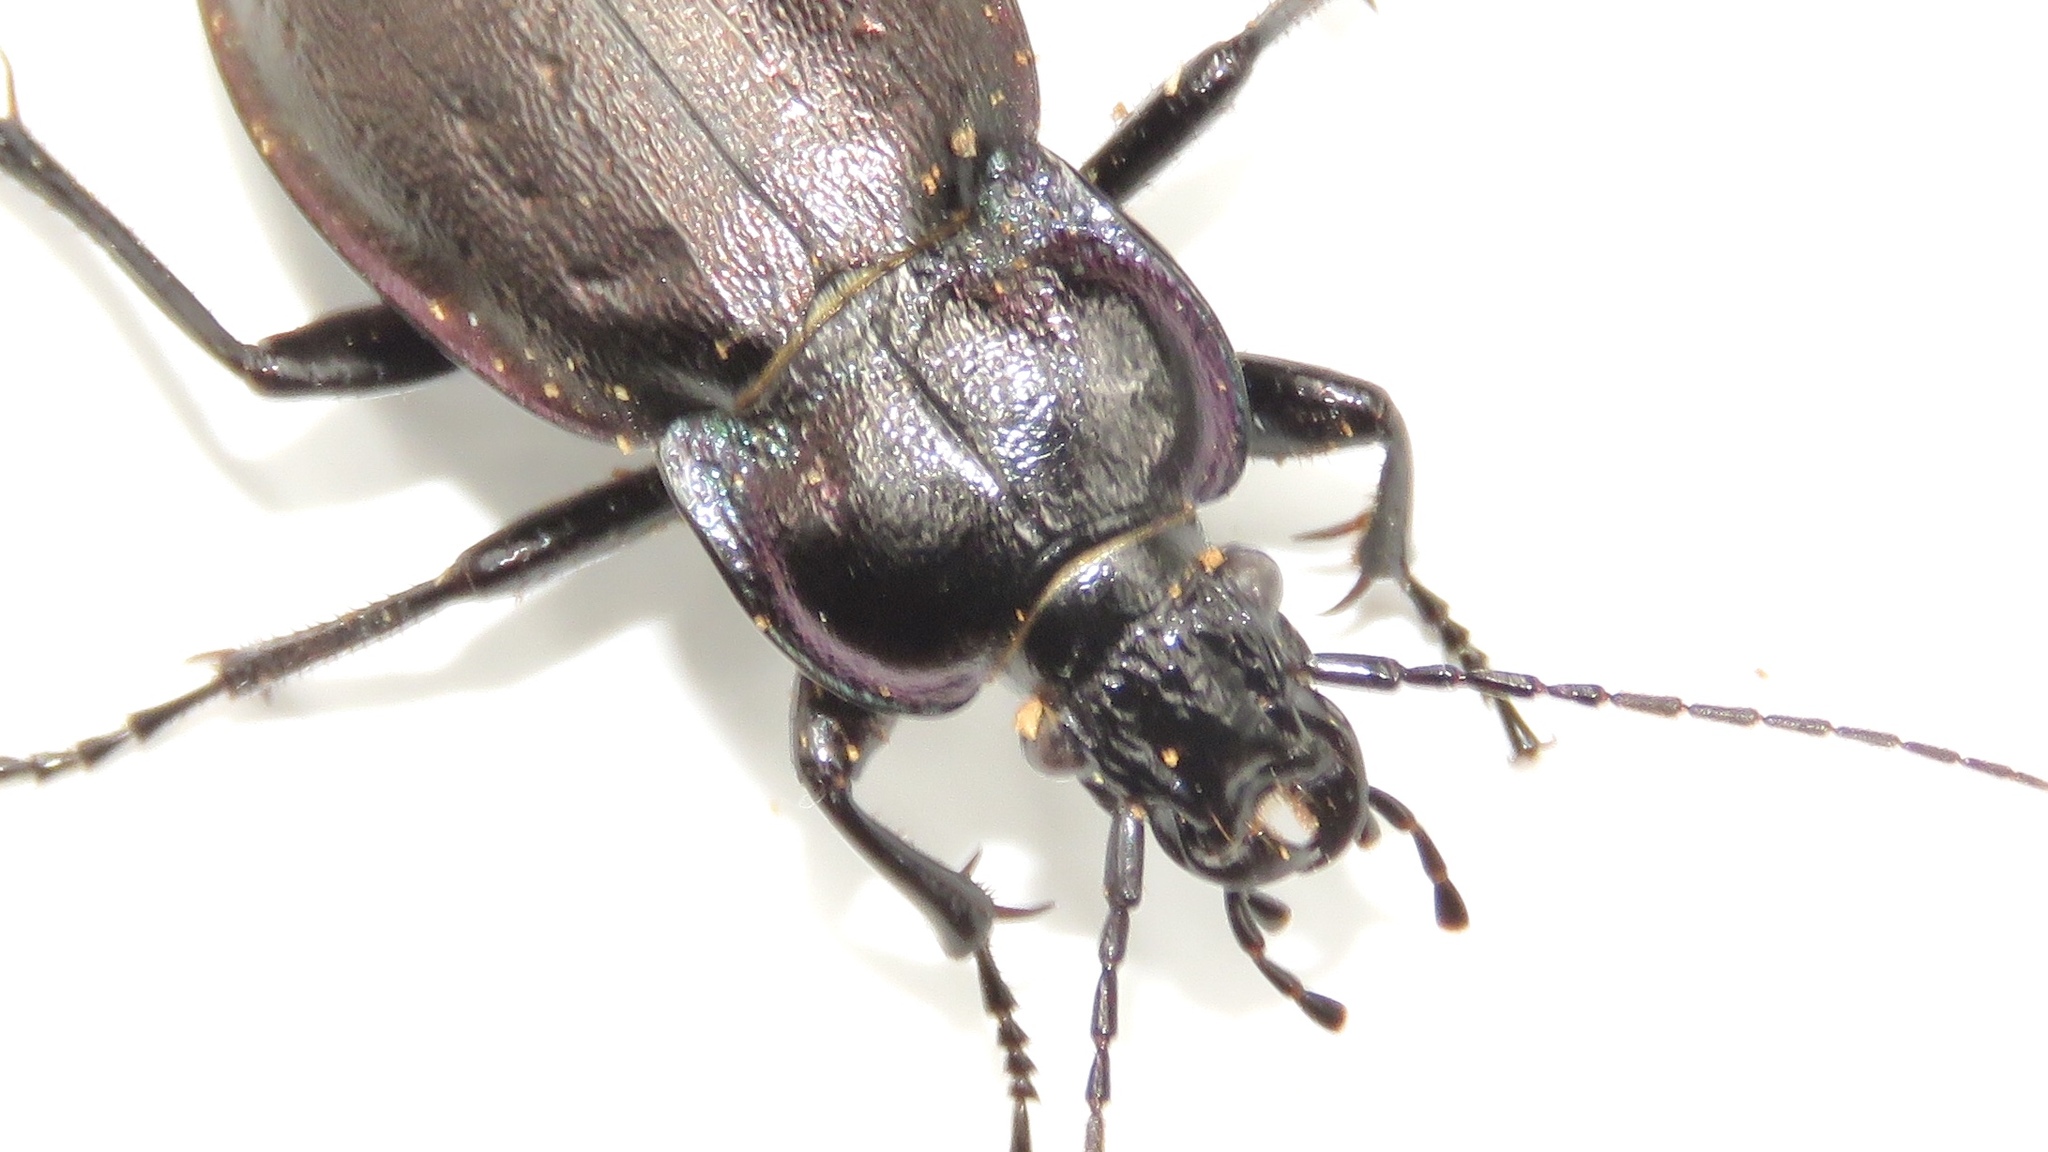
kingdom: Animalia
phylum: Arthropoda
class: Insecta
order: Coleoptera
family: Carabidae
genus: Carabus
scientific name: Carabus nemoralis
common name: European ground beetle
